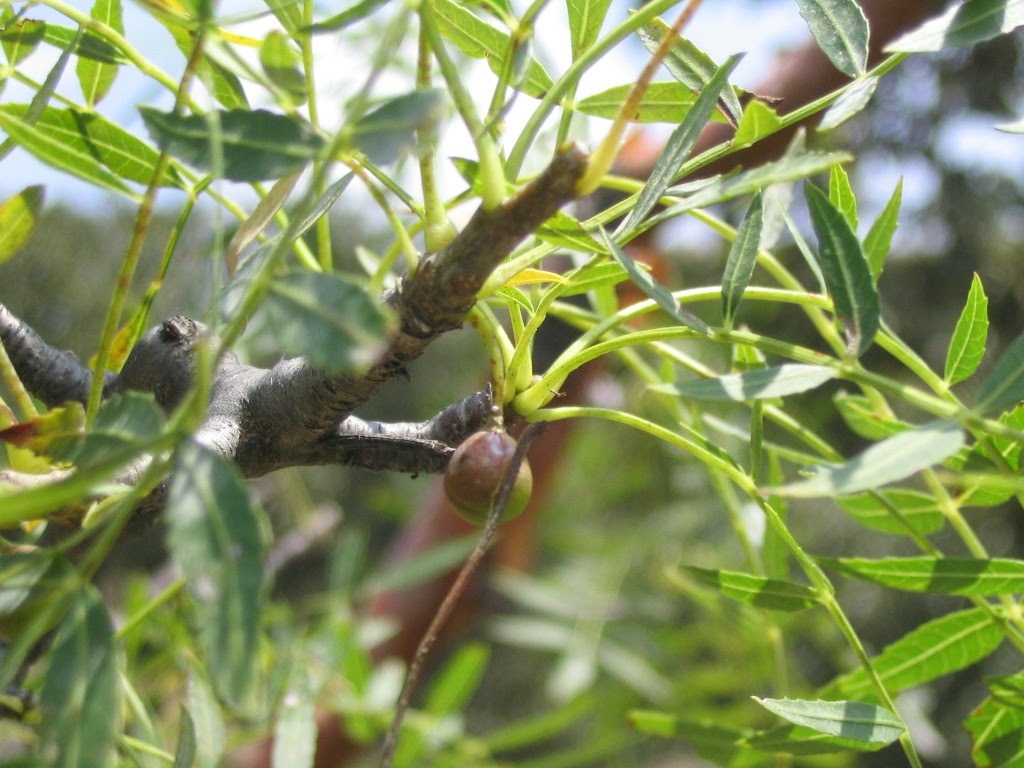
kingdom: Plantae
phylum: Tracheophyta
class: Magnoliopsida
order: Sapindales
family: Burseraceae
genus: Bursera
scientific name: Bursera multijuga
